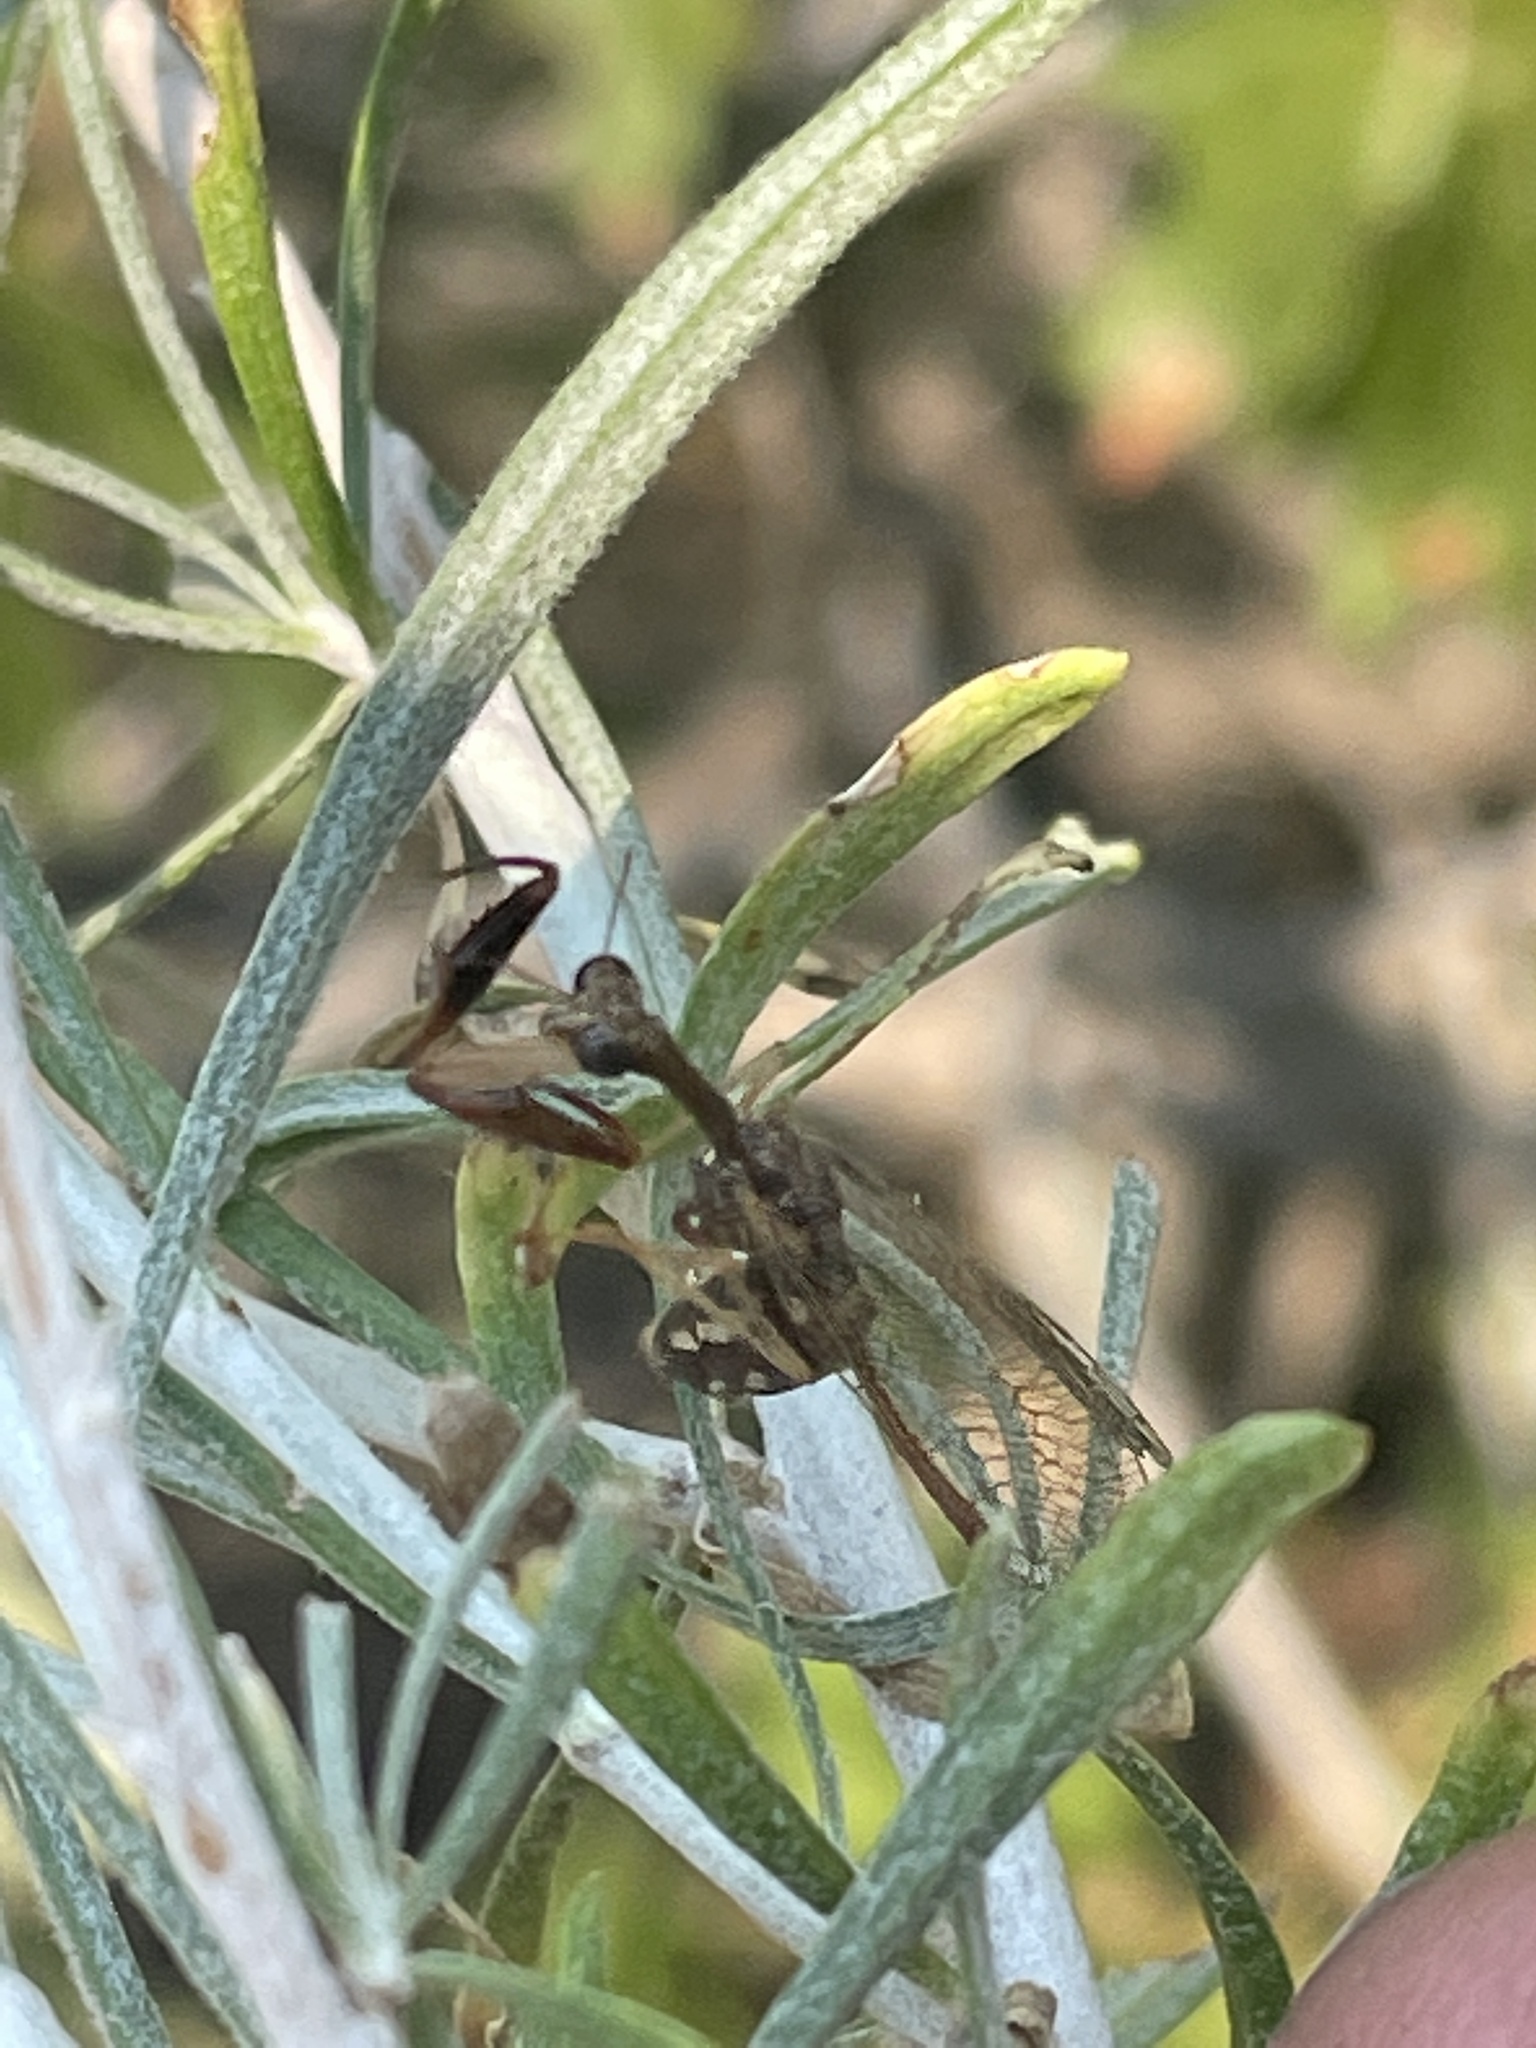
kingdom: Animalia
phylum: Arthropoda
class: Insecta
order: Neuroptera
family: Mantispidae
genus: Dicromantispa
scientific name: Dicromantispa sayi
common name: Say's mantidfly
